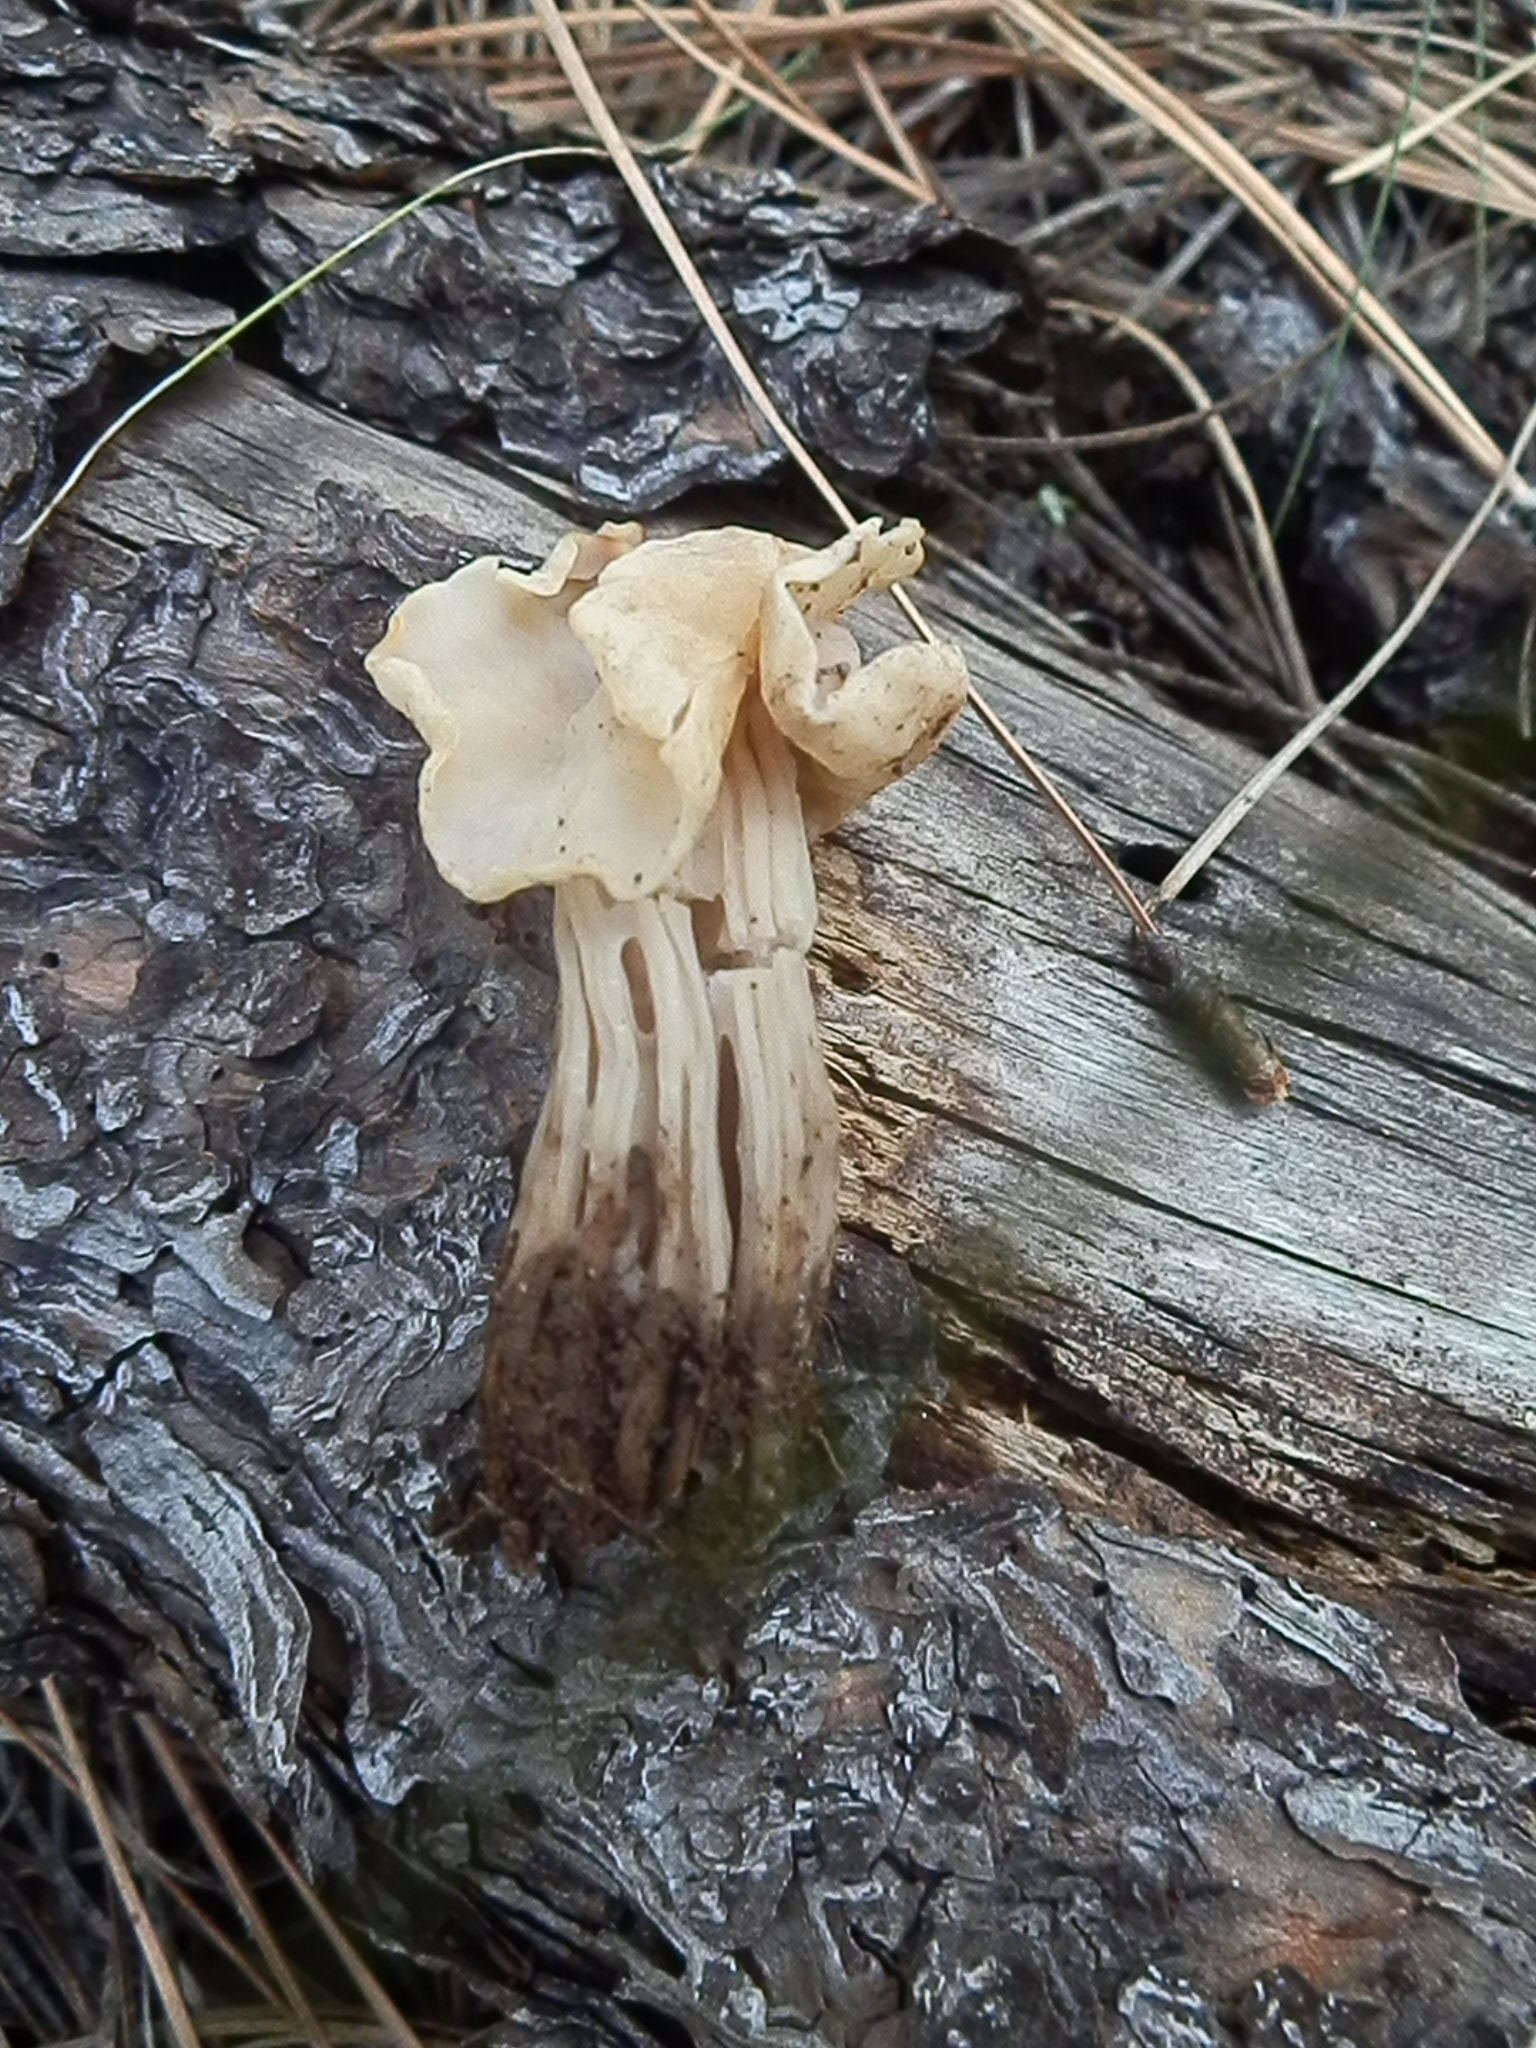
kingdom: Fungi
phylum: Ascomycota
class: Pezizomycetes
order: Pezizales
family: Helvellaceae
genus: Helvella
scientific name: Helvella crispa
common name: White saddle
